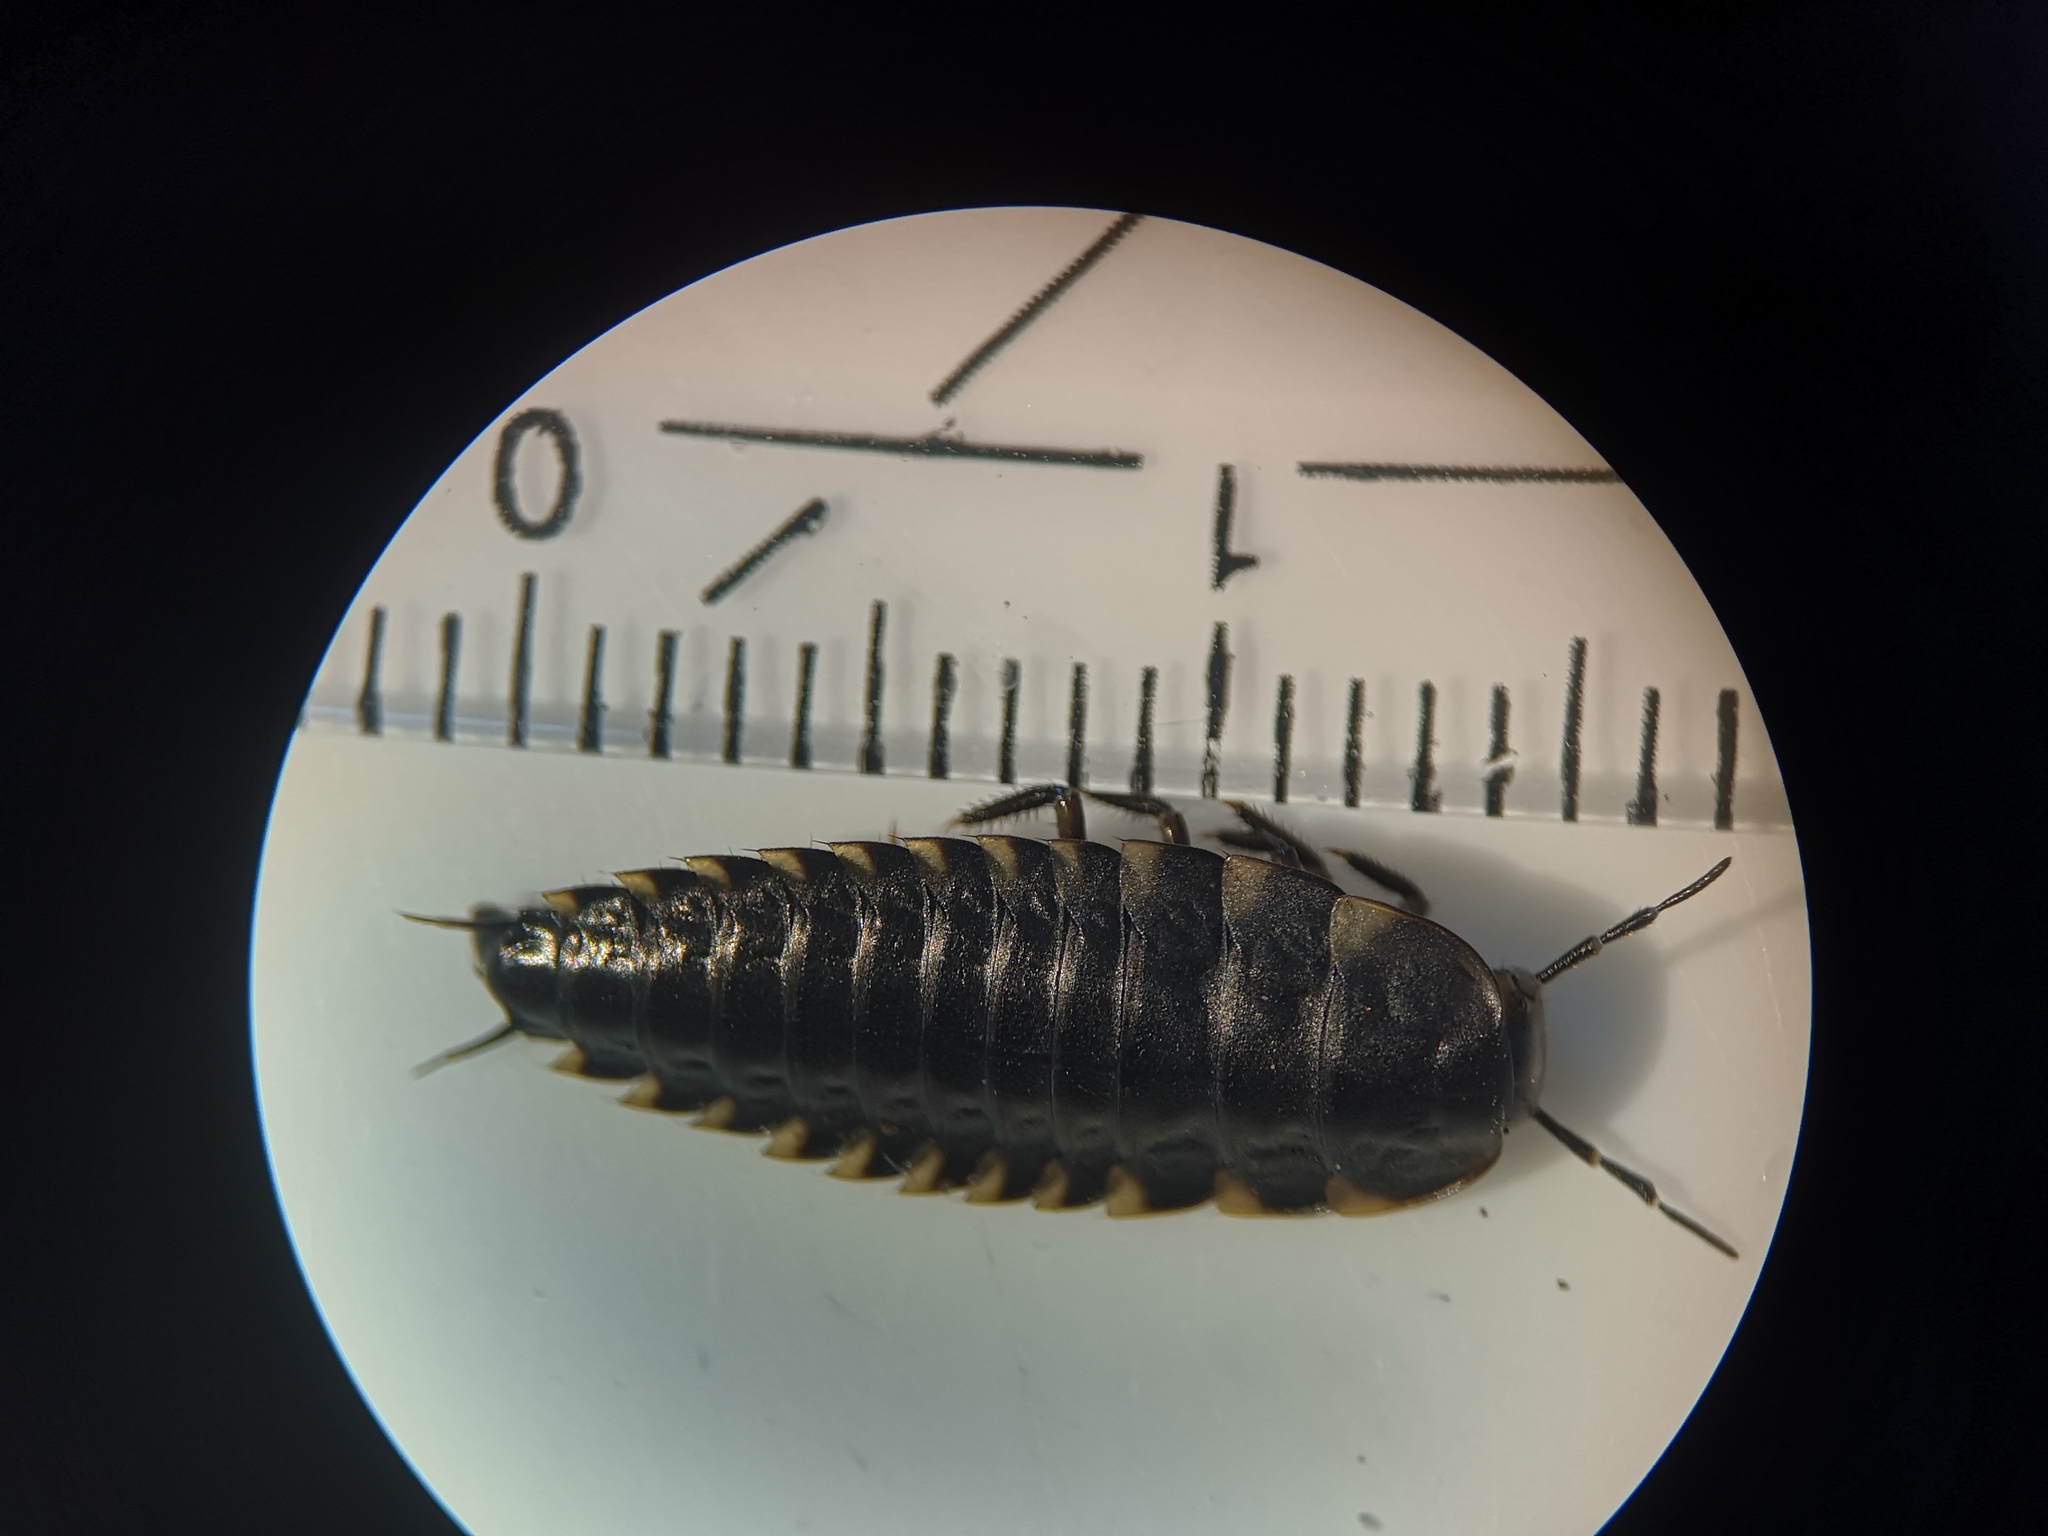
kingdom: Animalia
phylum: Arthropoda
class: Insecta
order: Coleoptera
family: Staphylinidae
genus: Silpha
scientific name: Silpha tristis
